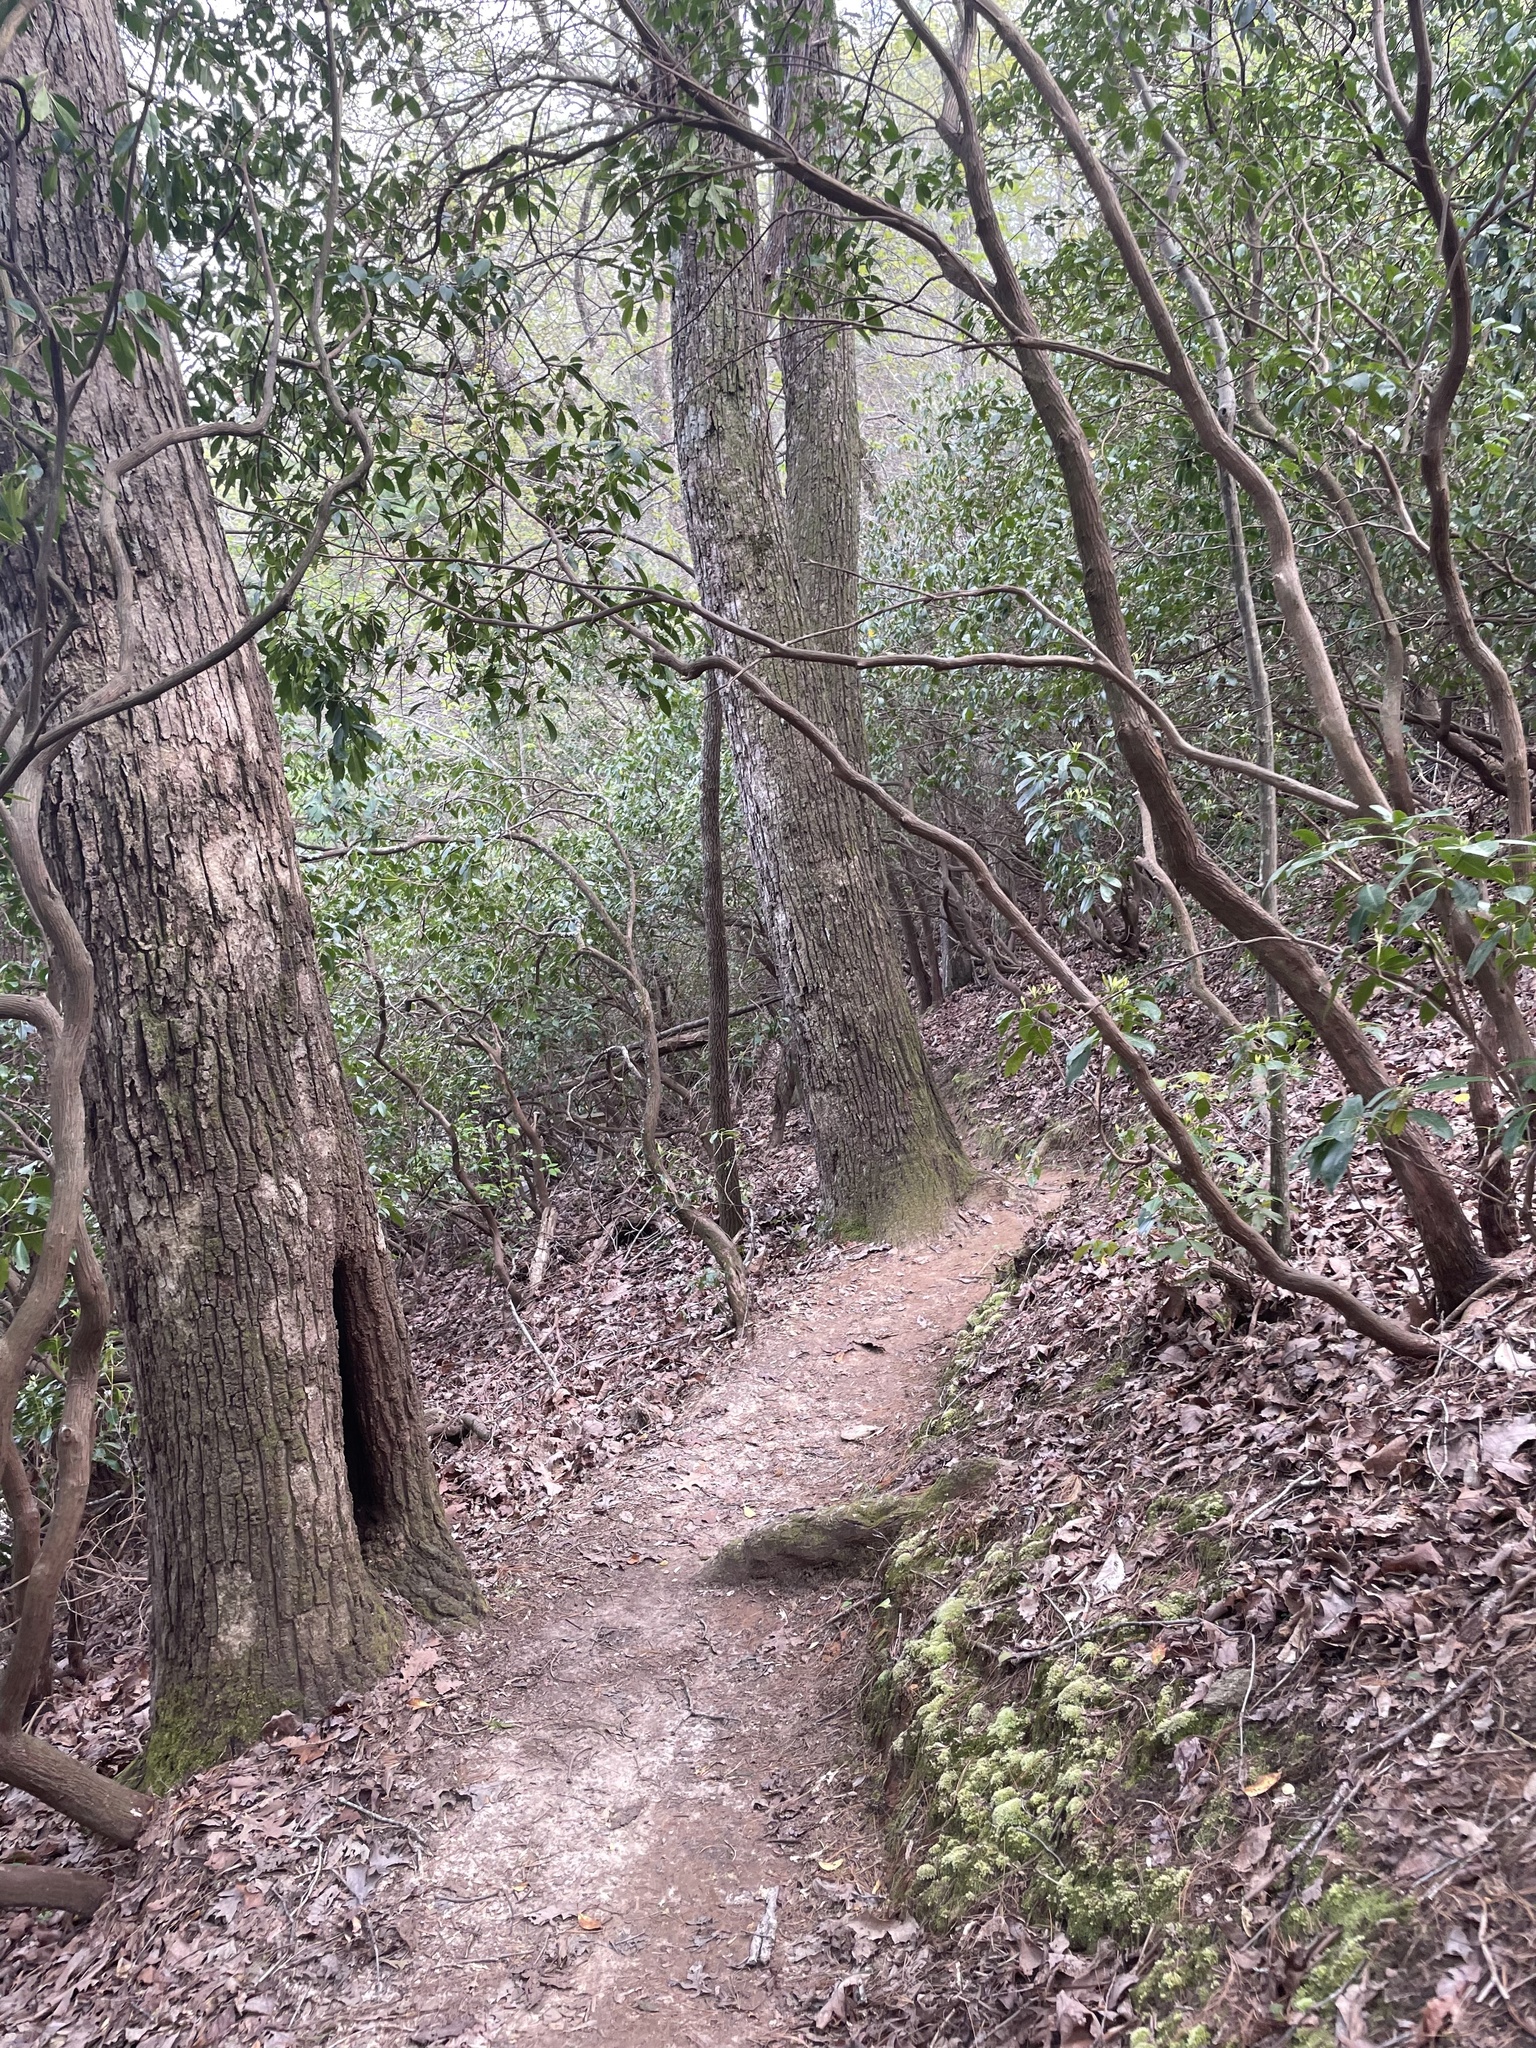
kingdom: Plantae
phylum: Tracheophyta
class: Magnoliopsida
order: Ericales
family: Ericaceae
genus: Kalmia
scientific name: Kalmia latifolia
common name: Mountain-laurel
